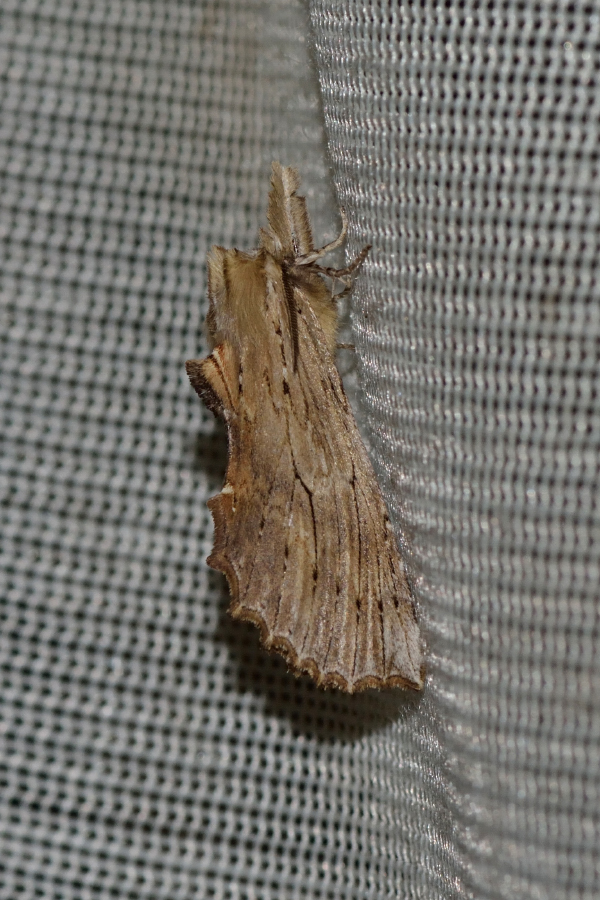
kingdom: Animalia
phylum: Arthropoda
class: Insecta
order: Lepidoptera
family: Notodontidae
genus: Pterostoma
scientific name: Pterostoma palpina
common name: Pale prominent
